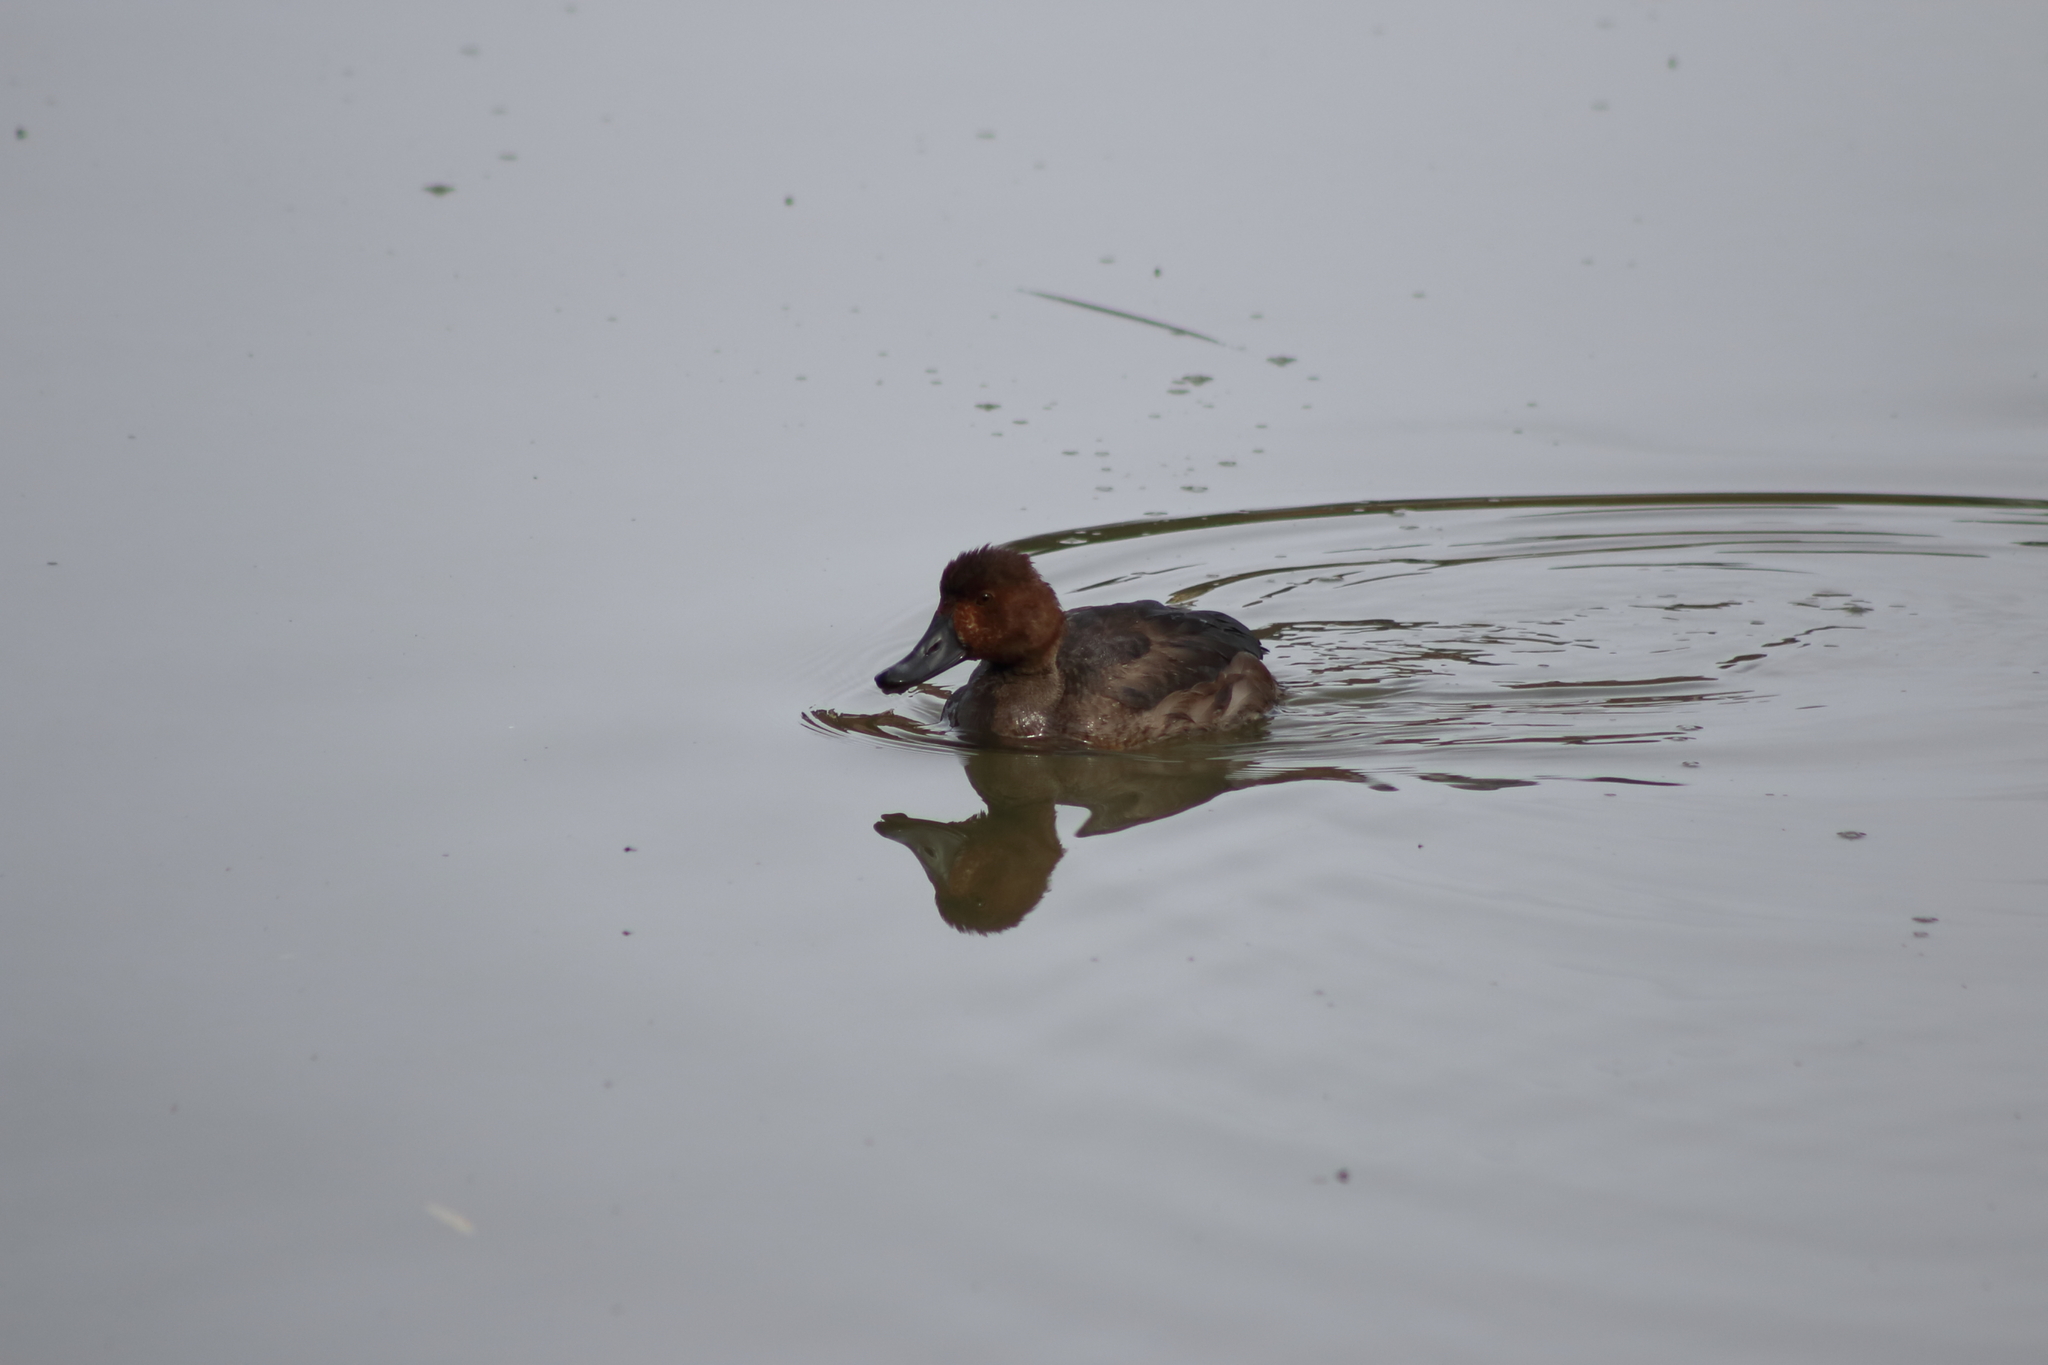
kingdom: Animalia
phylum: Chordata
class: Aves
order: Anseriformes
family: Anatidae
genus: Aythya
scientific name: Aythya americana
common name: Redhead
